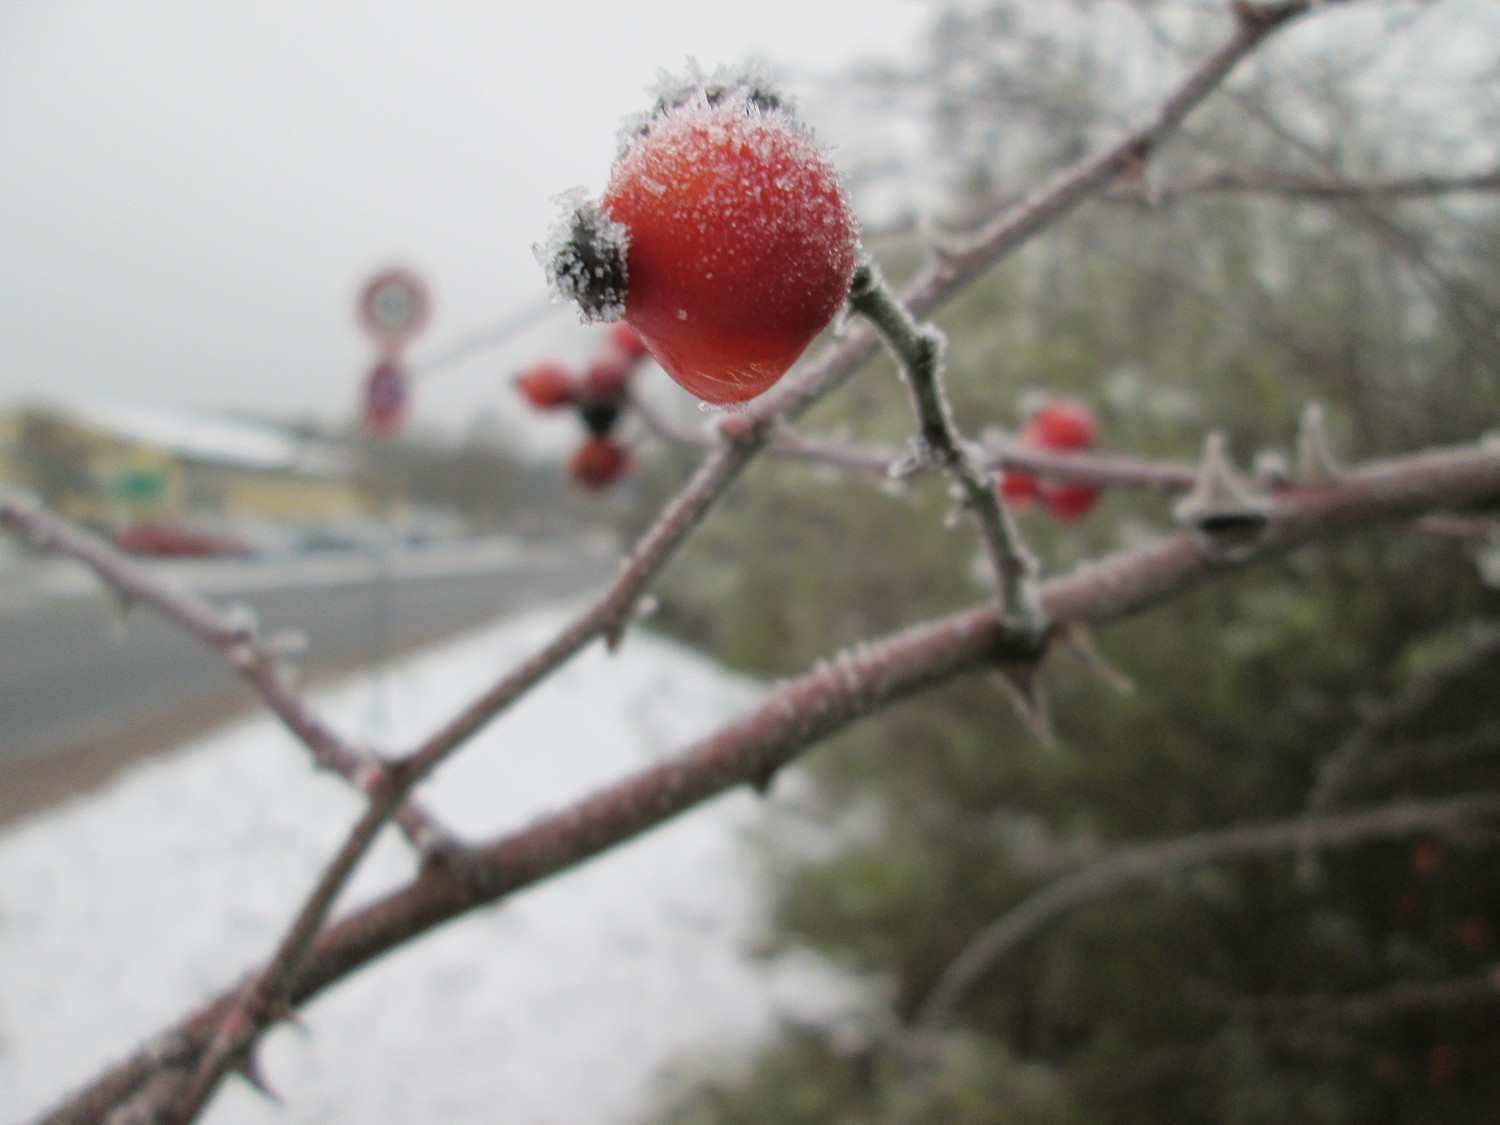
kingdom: Plantae
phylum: Tracheophyta
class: Magnoliopsida
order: Rosales
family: Rosaceae
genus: Rosa
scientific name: Rosa canina
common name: Dog rose
